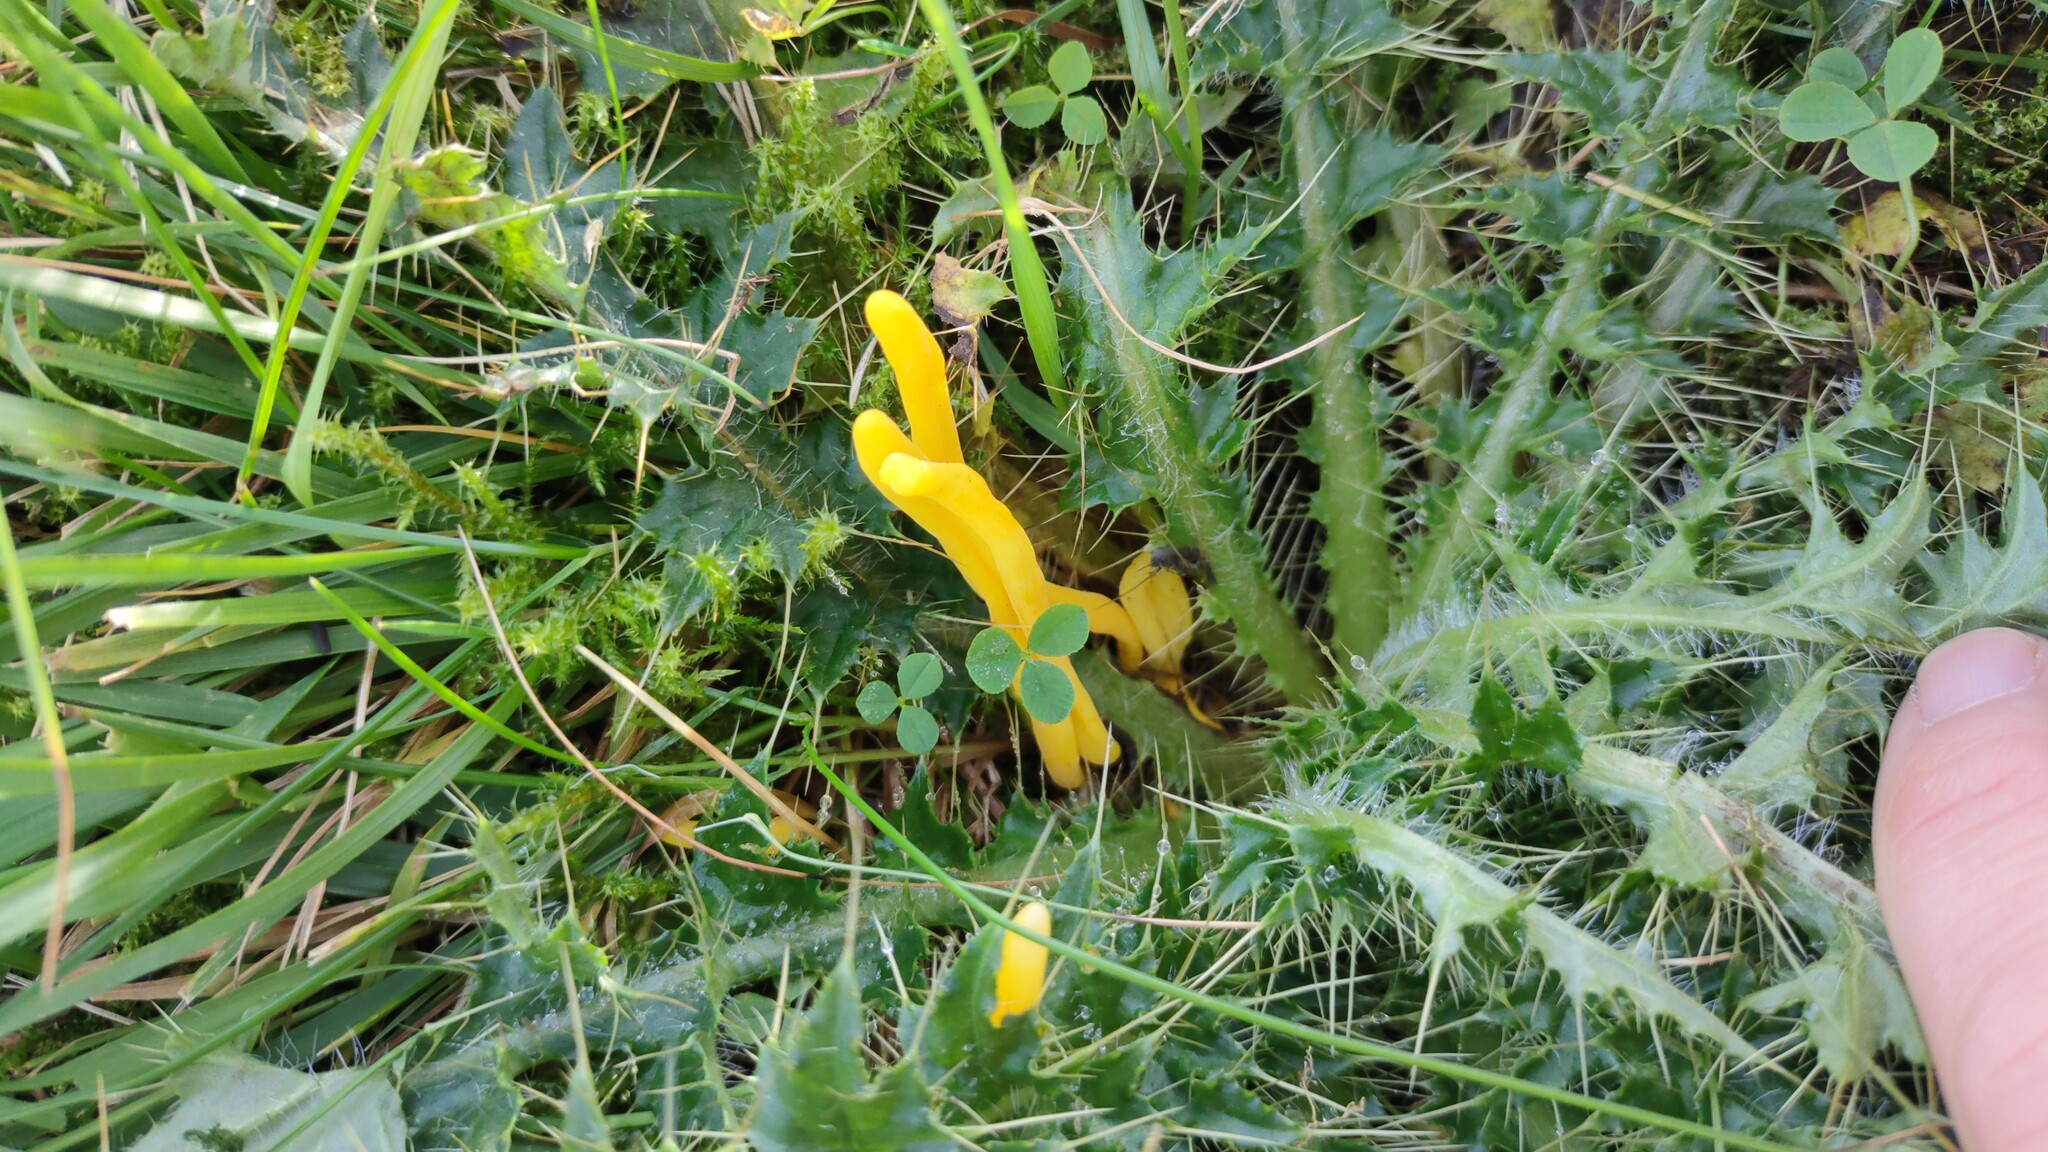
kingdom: Fungi
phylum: Basidiomycota
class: Agaricomycetes
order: Agaricales
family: Clavariaceae
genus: Clavulinopsis
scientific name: Clavulinopsis helvola
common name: Yellow club
